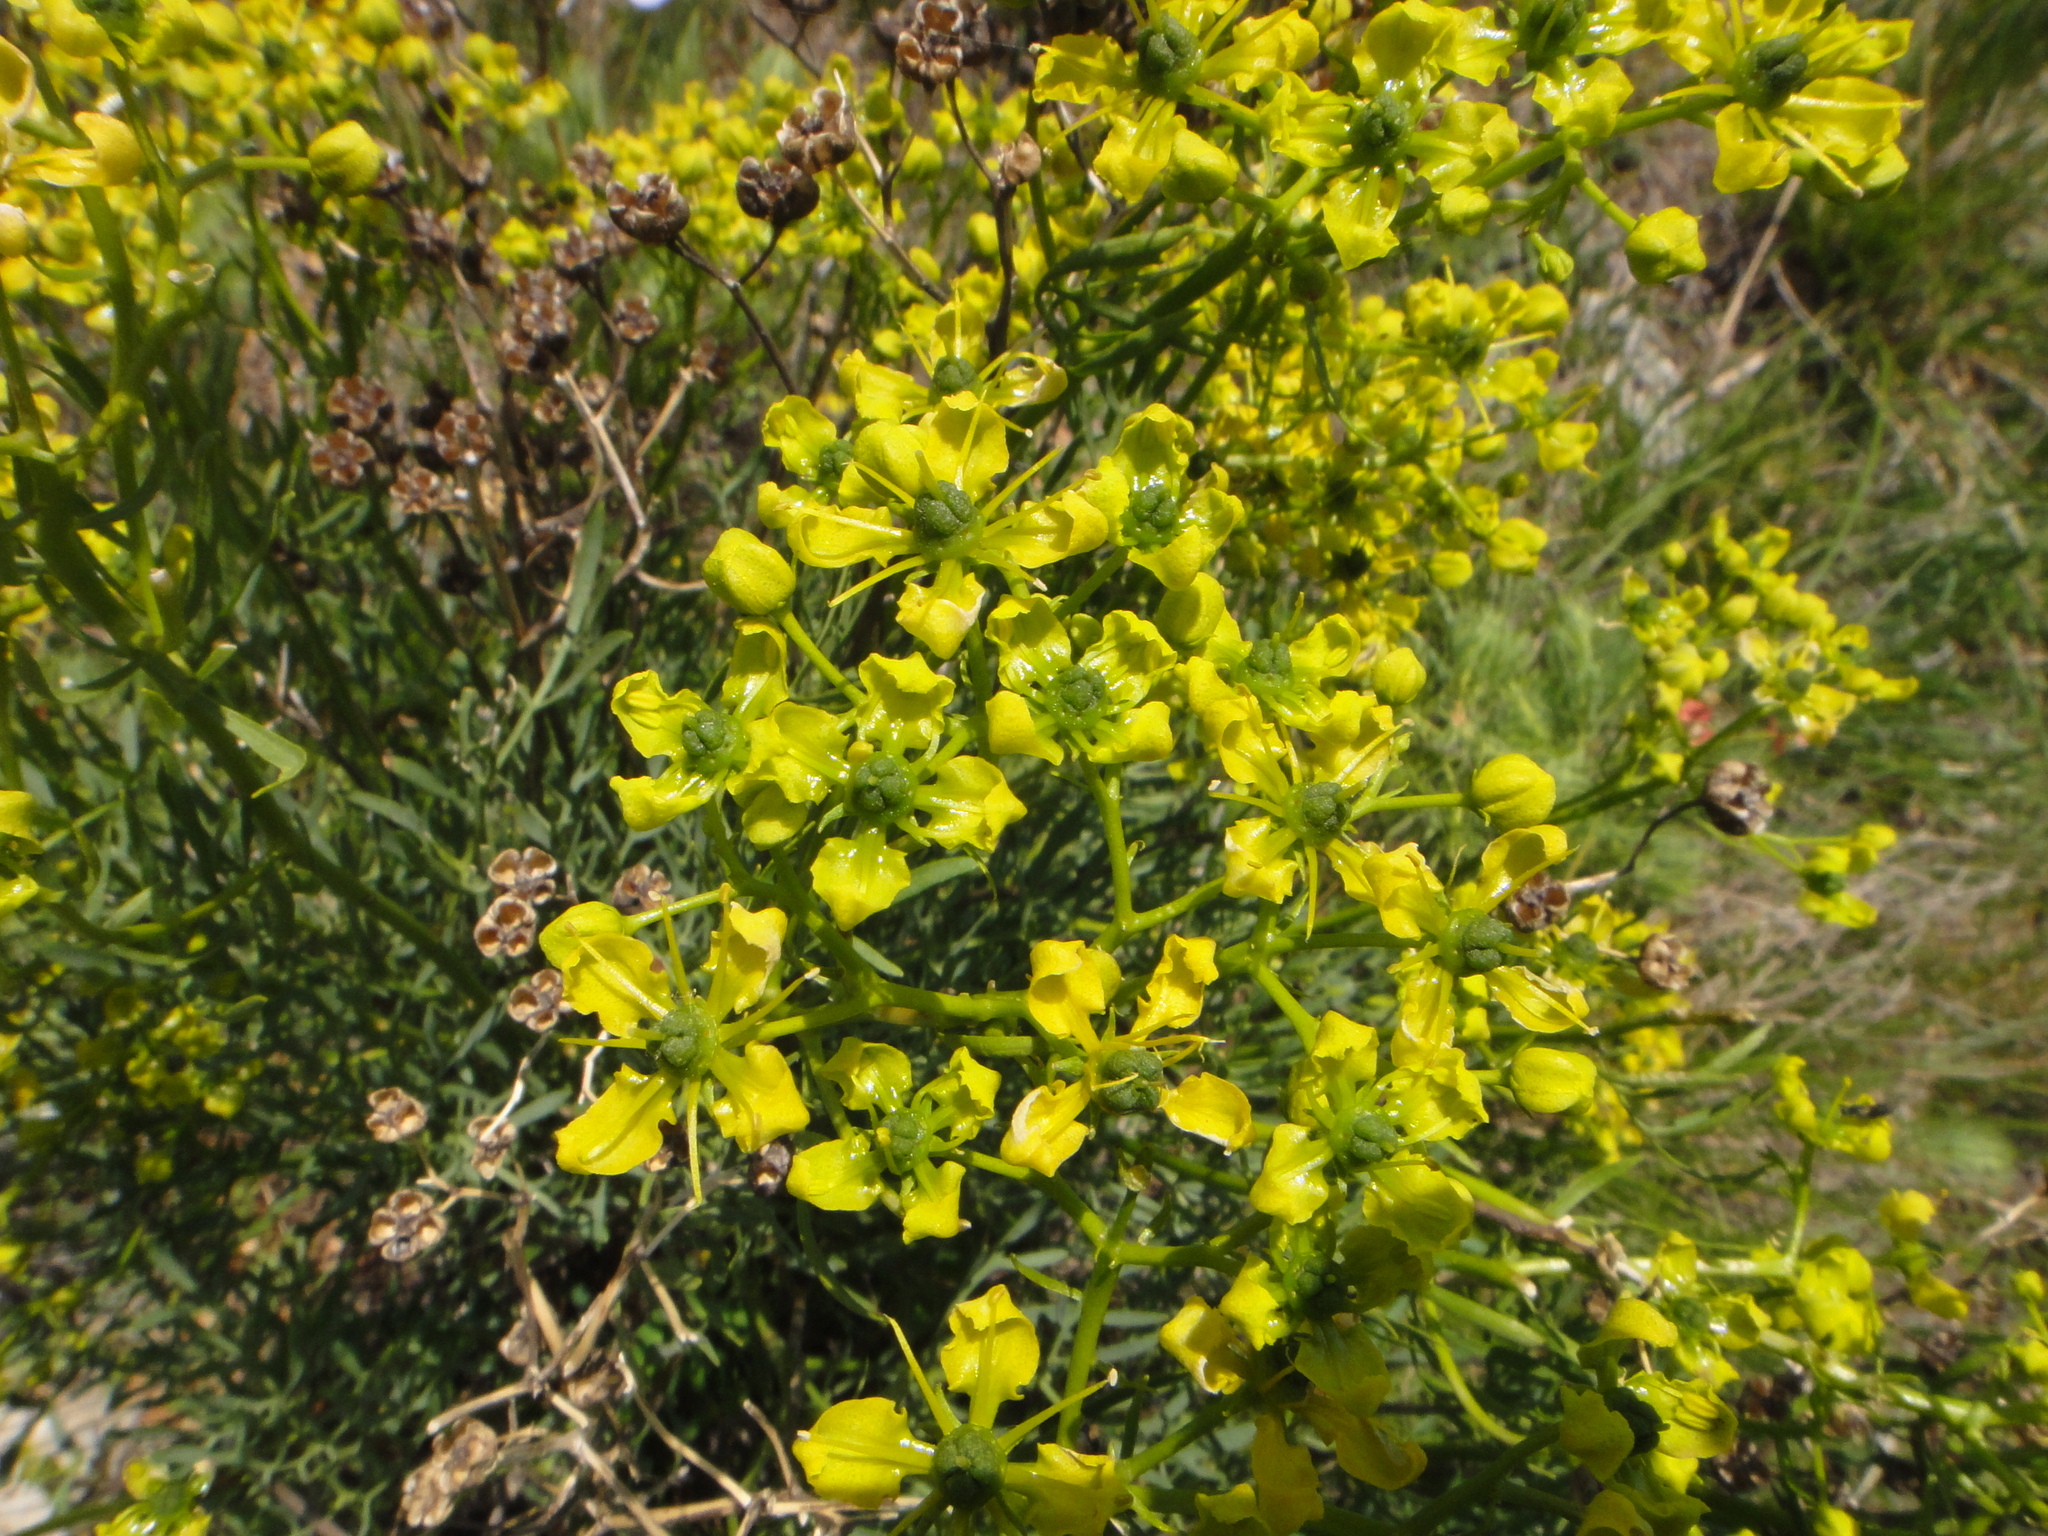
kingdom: Plantae
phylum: Tracheophyta
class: Magnoliopsida
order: Sapindales
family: Rutaceae
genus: Ruta
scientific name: Ruta
